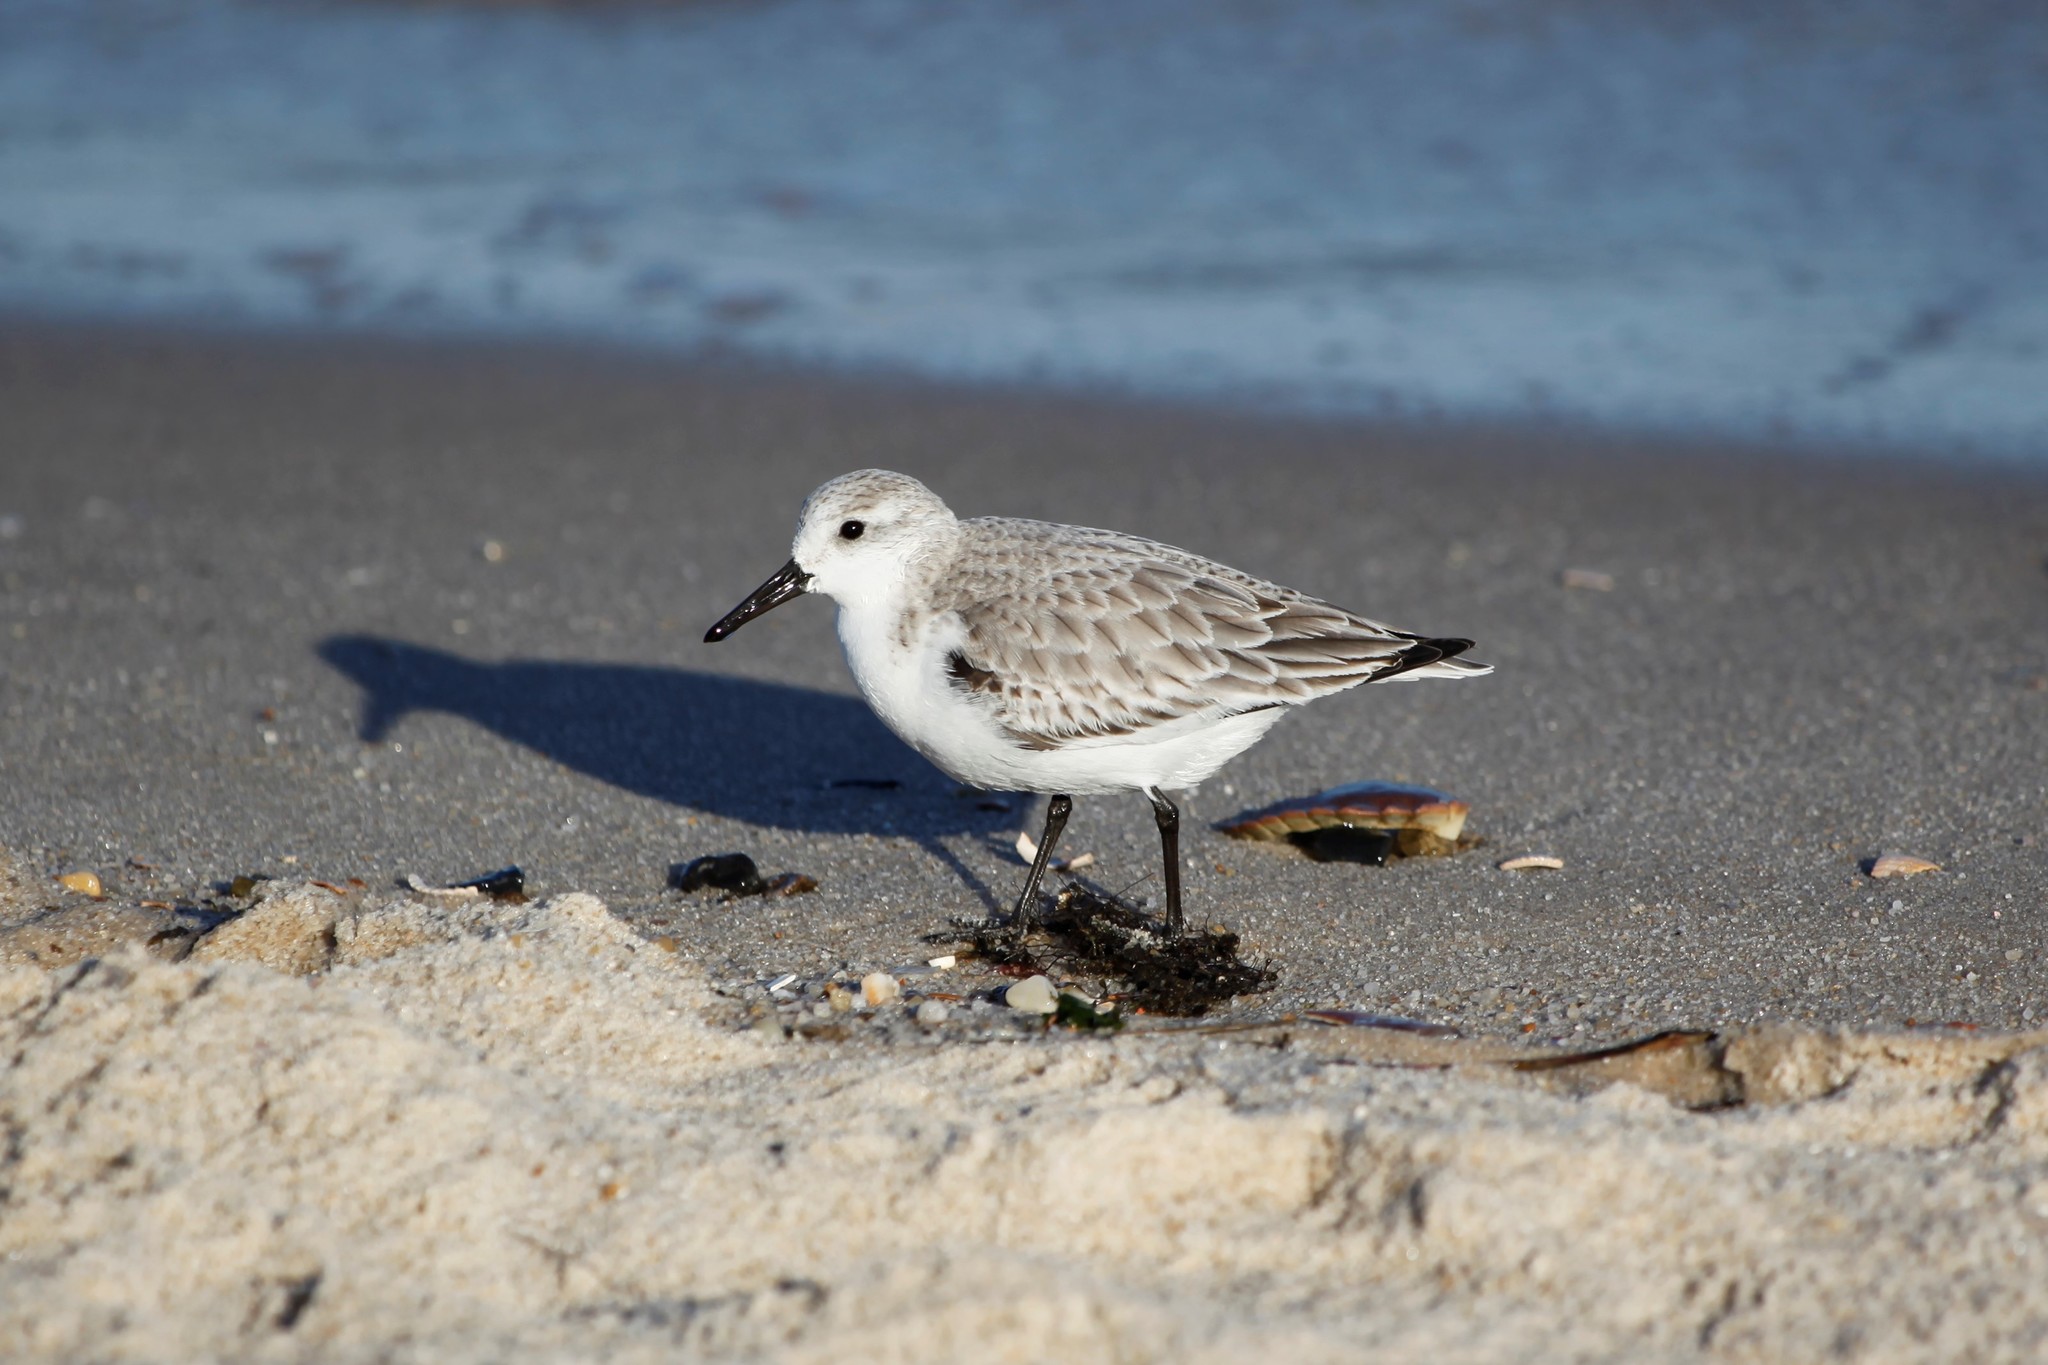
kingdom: Animalia
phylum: Chordata
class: Aves
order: Charadriiformes
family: Scolopacidae
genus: Calidris
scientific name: Calidris alba
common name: Sanderling
